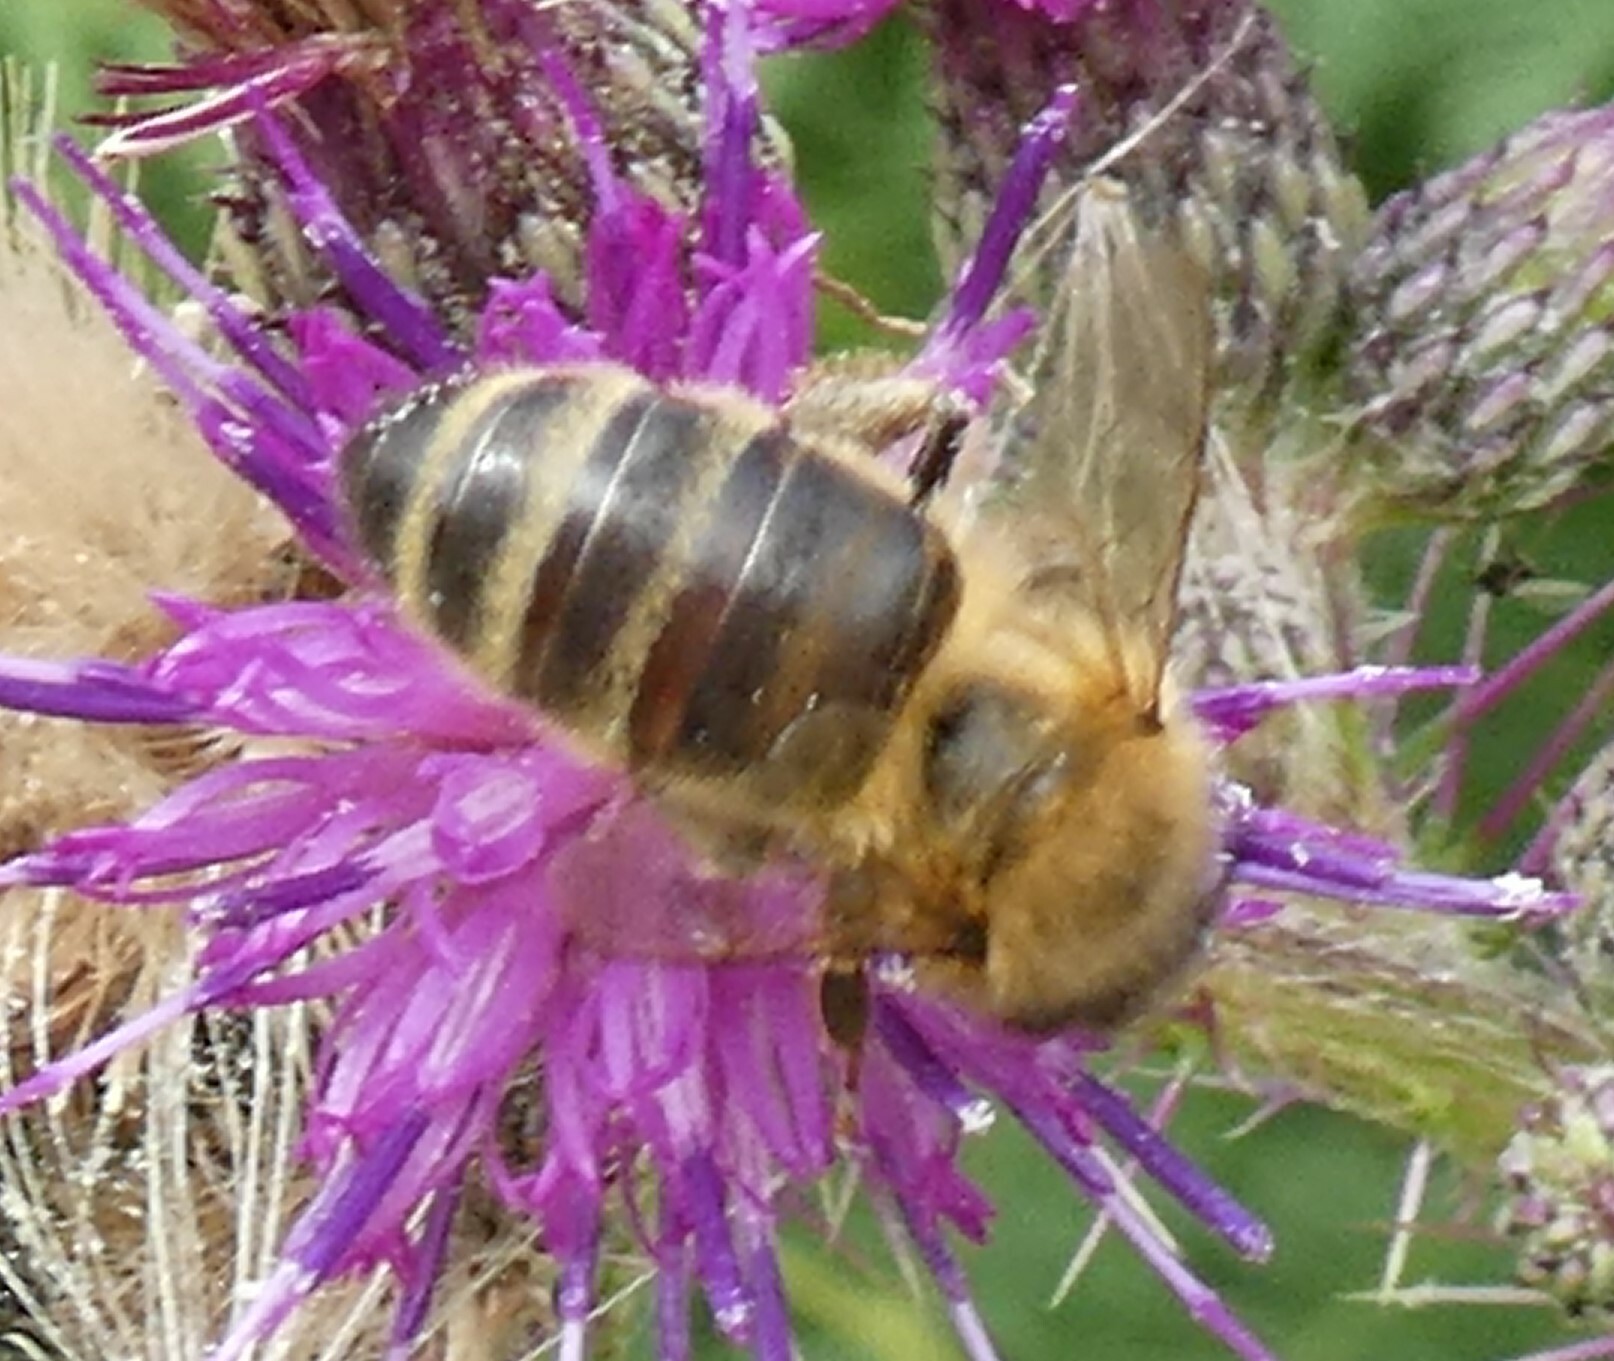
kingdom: Animalia
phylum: Arthropoda
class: Insecta
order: Hymenoptera
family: Apidae
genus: Apis
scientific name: Apis mellifera
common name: Honey bee
